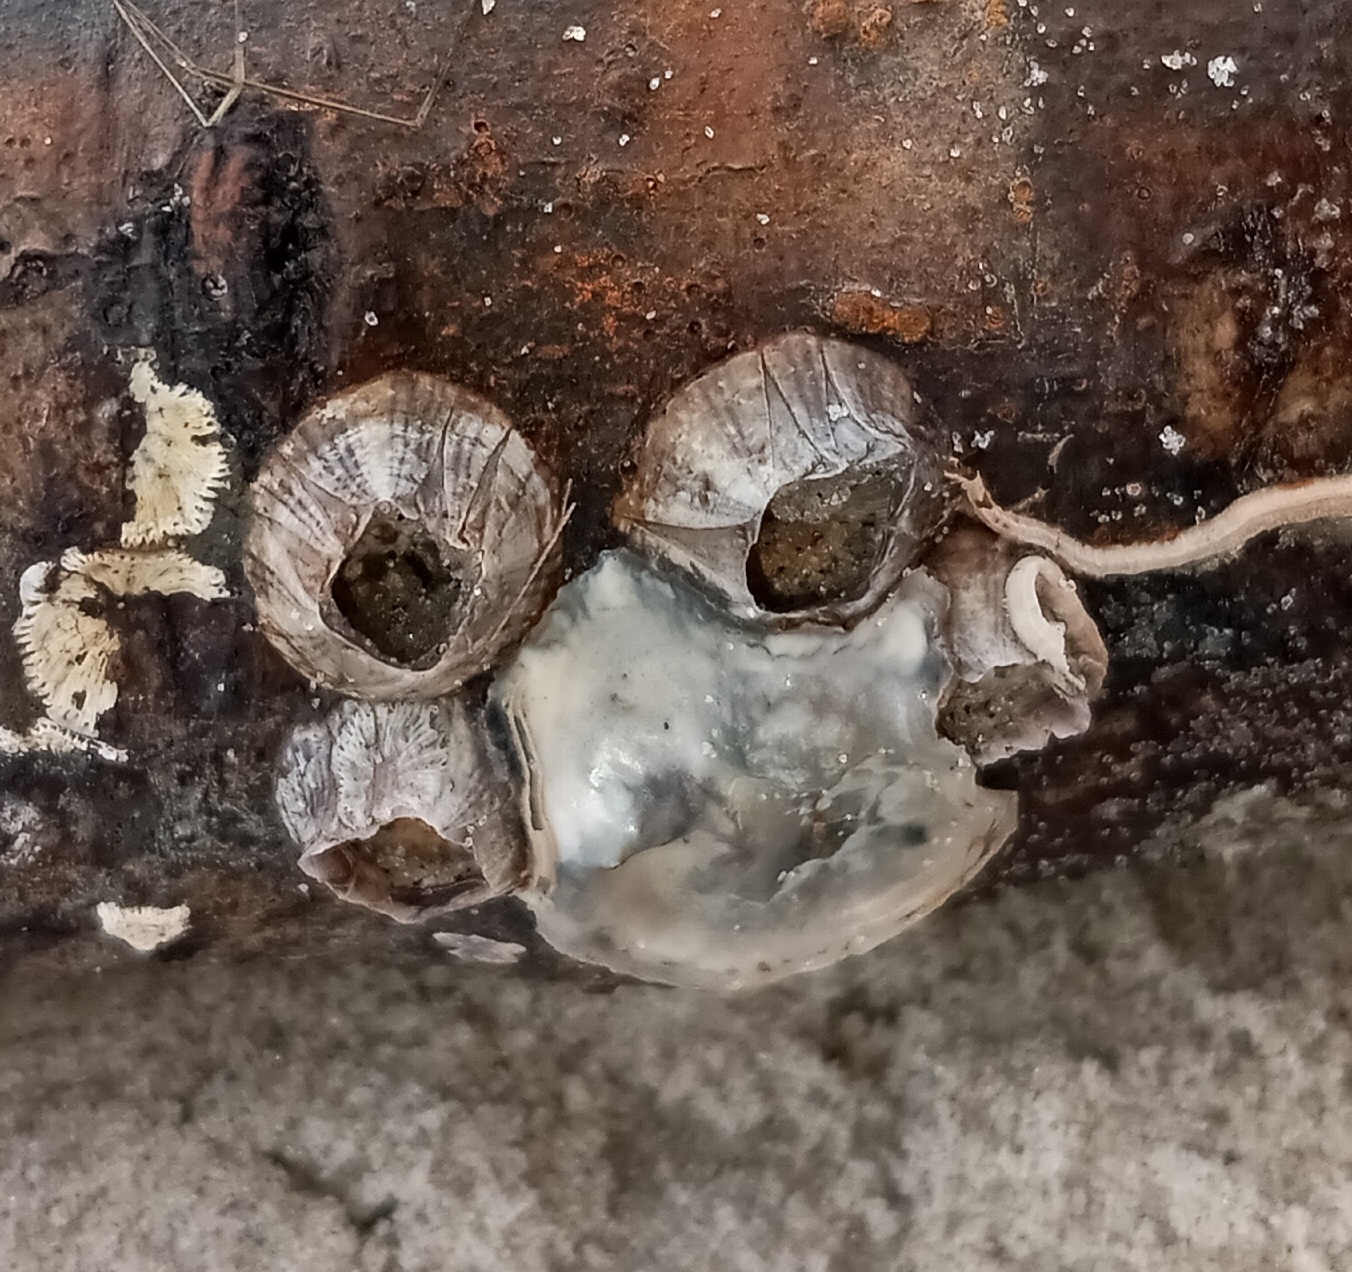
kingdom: Animalia
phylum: Arthropoda
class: Maxillopoda
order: Sessilia
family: Balanidae
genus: Amphibalanus
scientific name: Amphibalanus amphitrite
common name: Striped acorn barnacle
